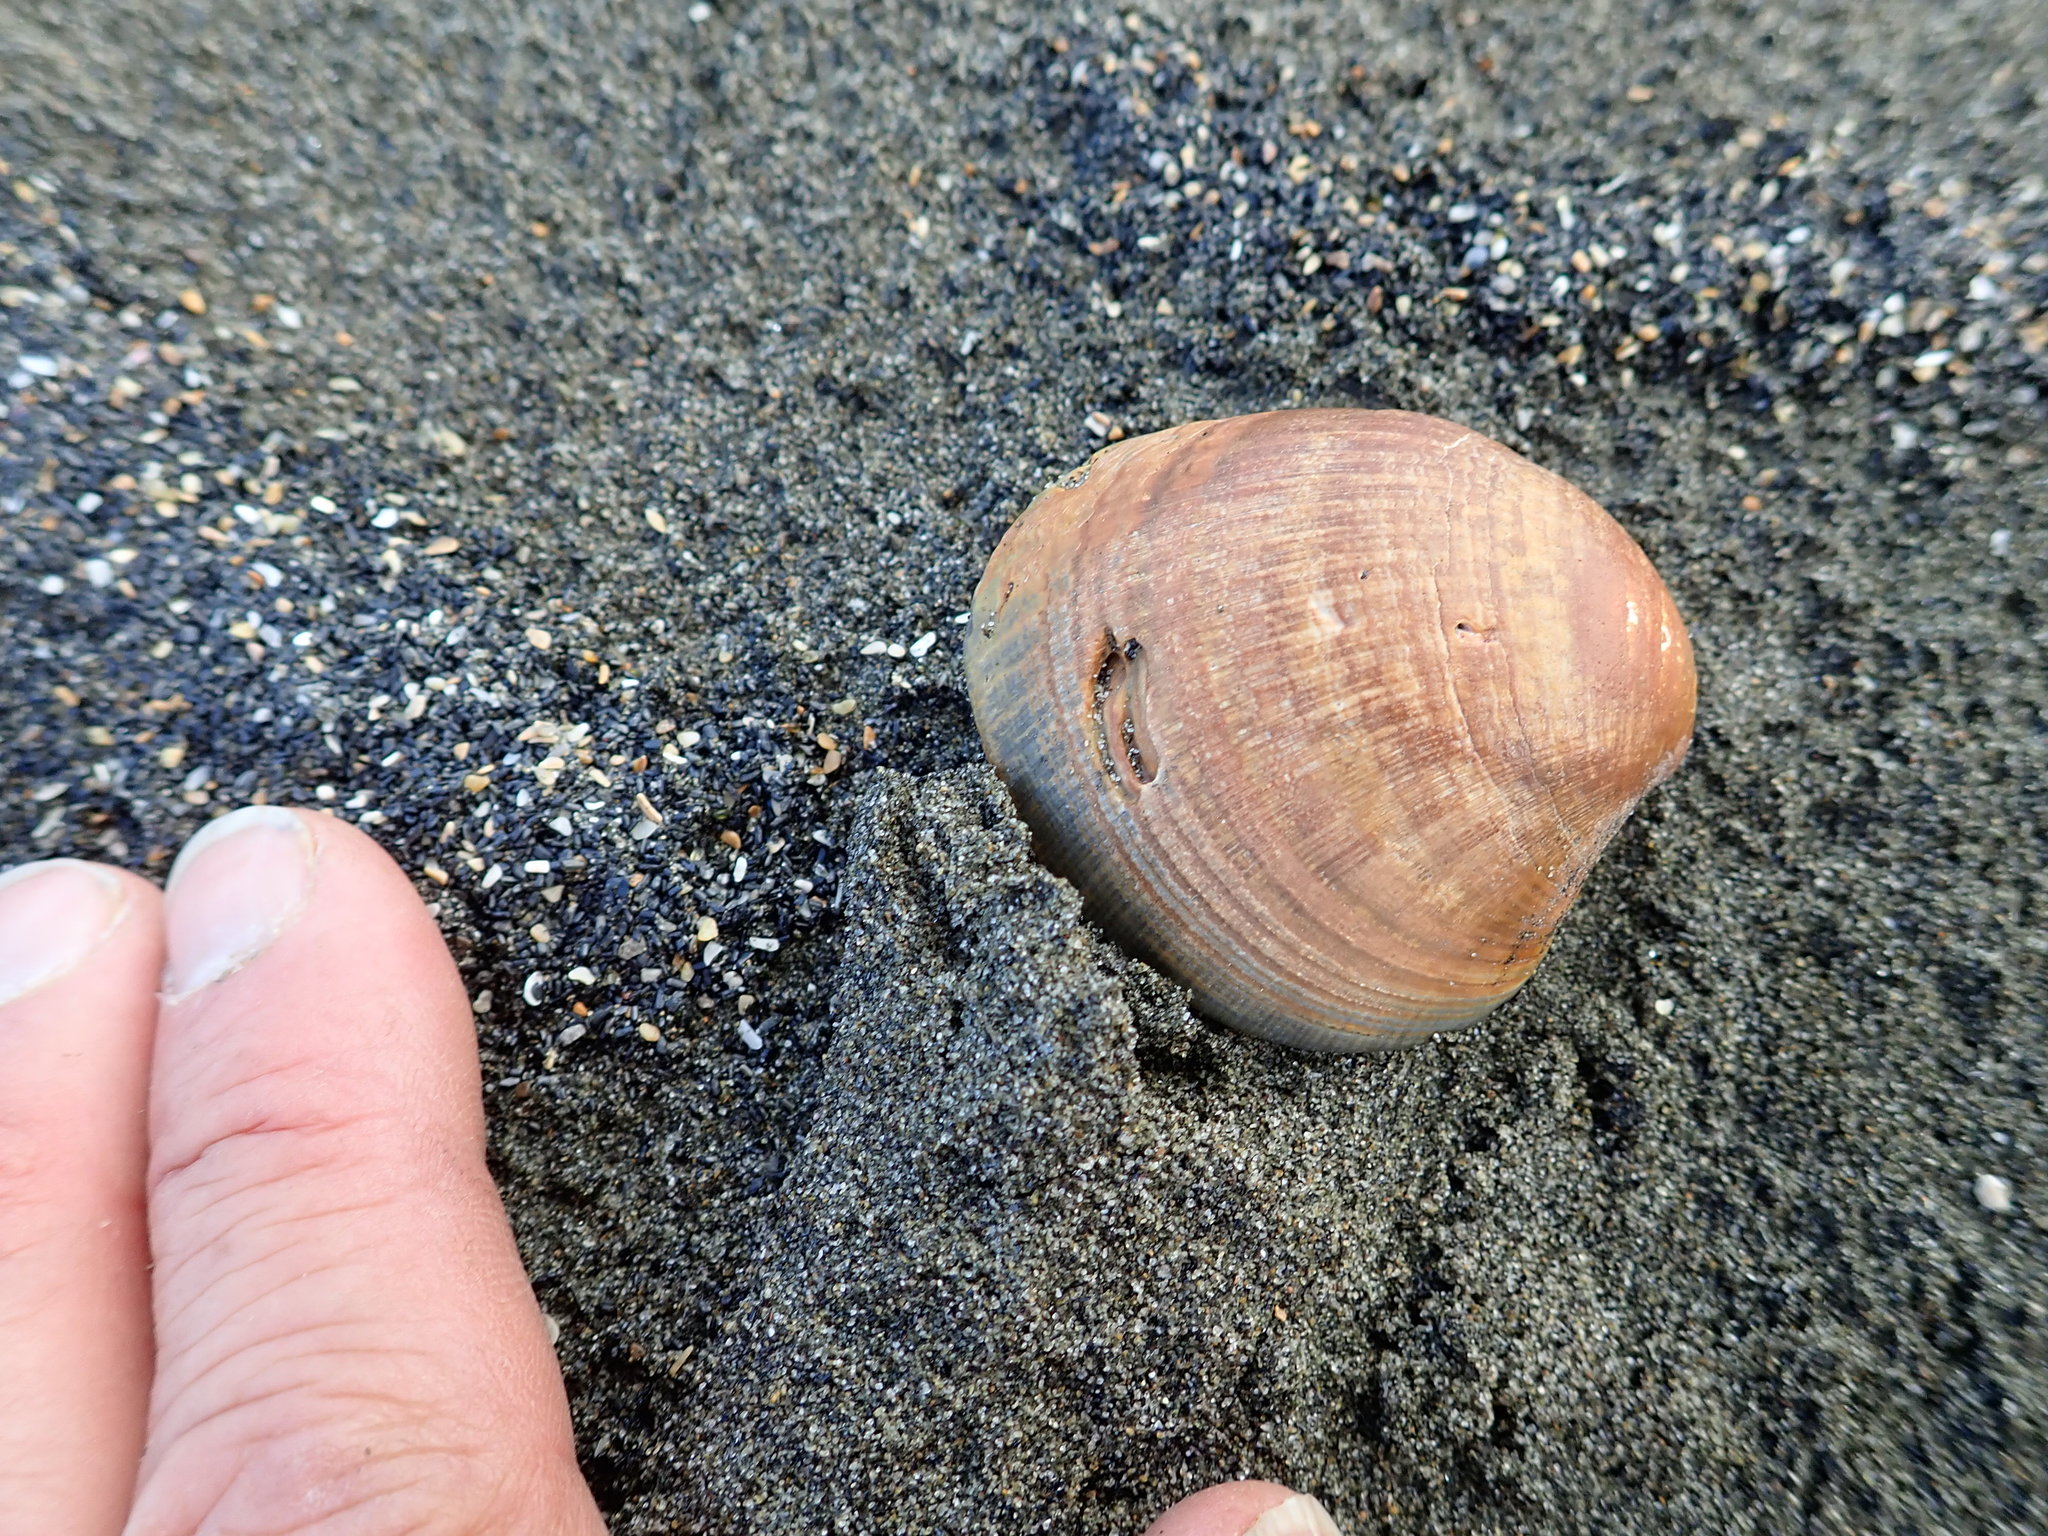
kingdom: Animalia
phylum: Mollusca
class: Bivalvia
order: Venerida
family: Veneridae
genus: Austrovenus
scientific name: Austrovenus stutchburyi
